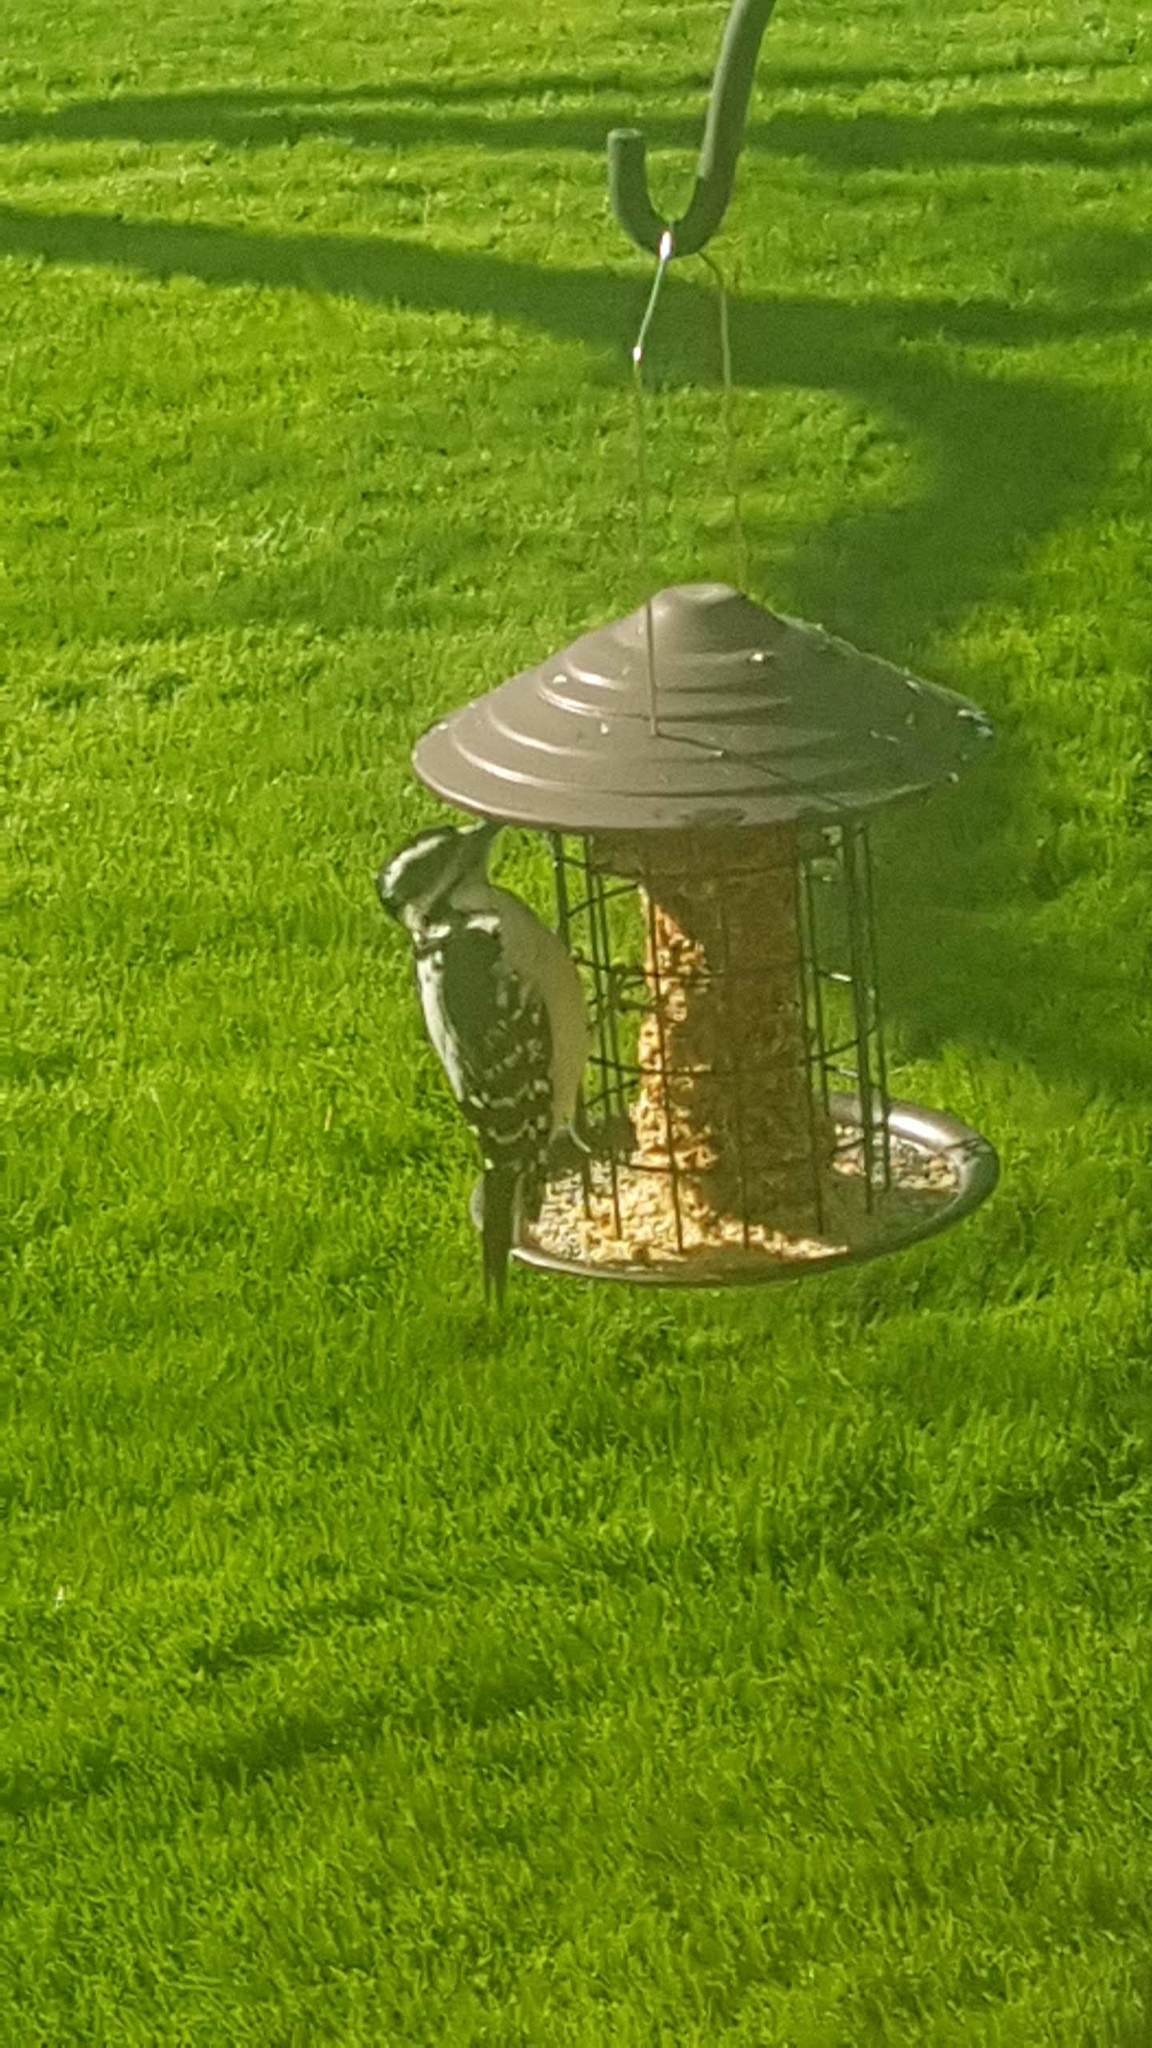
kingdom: Animalia
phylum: Chordata
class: Aves
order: Piciformes
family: Picidae
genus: Leuconotopicus
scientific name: Leuconotopicus villosus
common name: Hairy woodpecker
